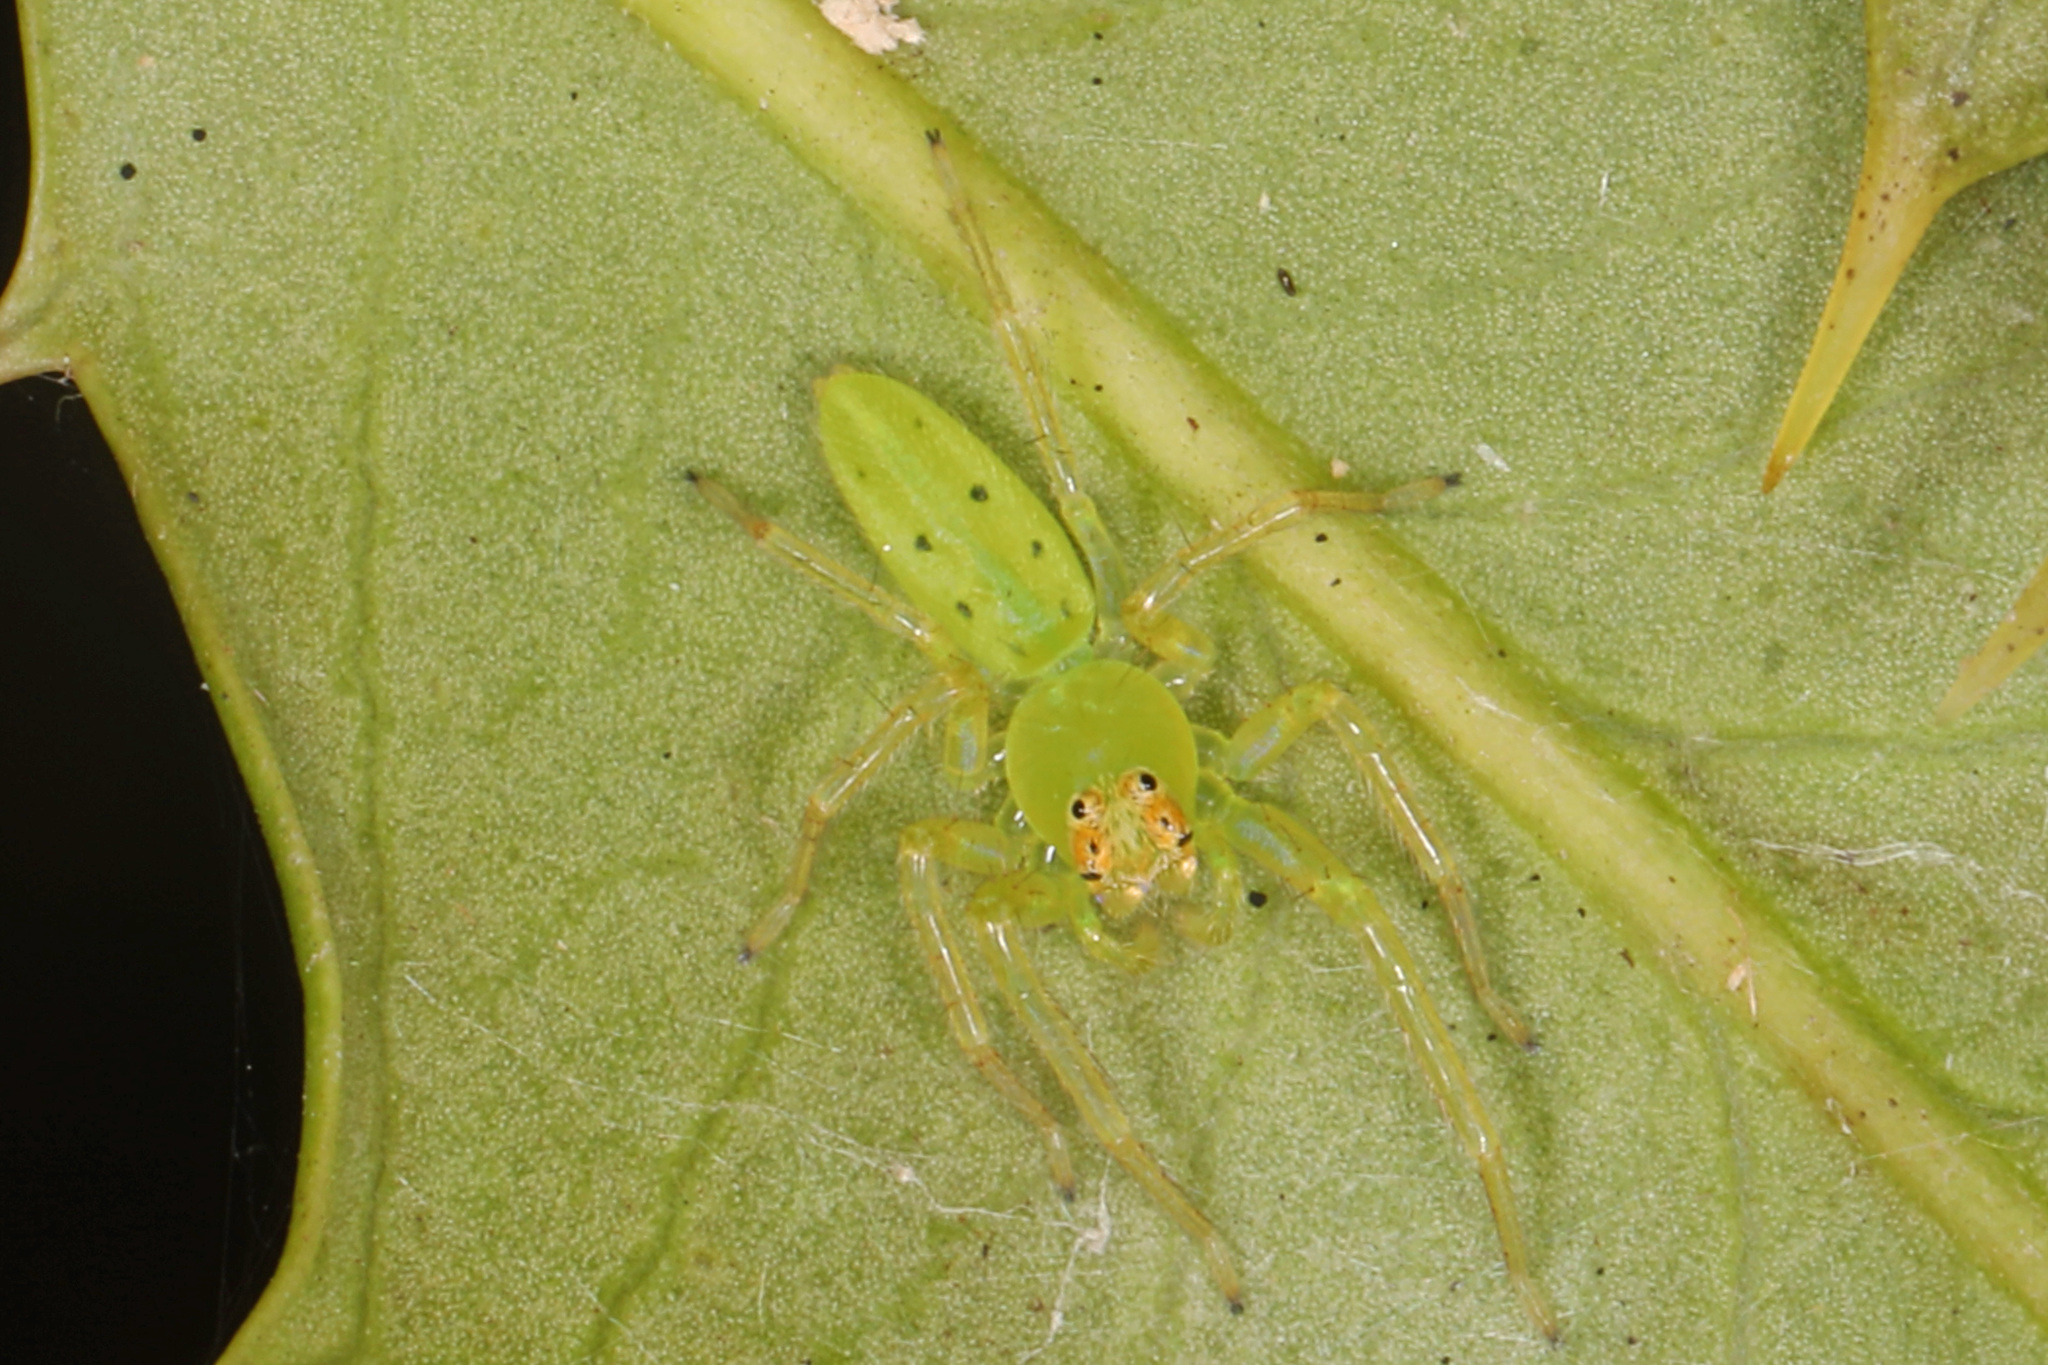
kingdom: Animalia
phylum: Arthropoda
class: Arachnida
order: Araneae
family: Salticidae
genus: Lyssomanes
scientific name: Lyssomanes viridis
